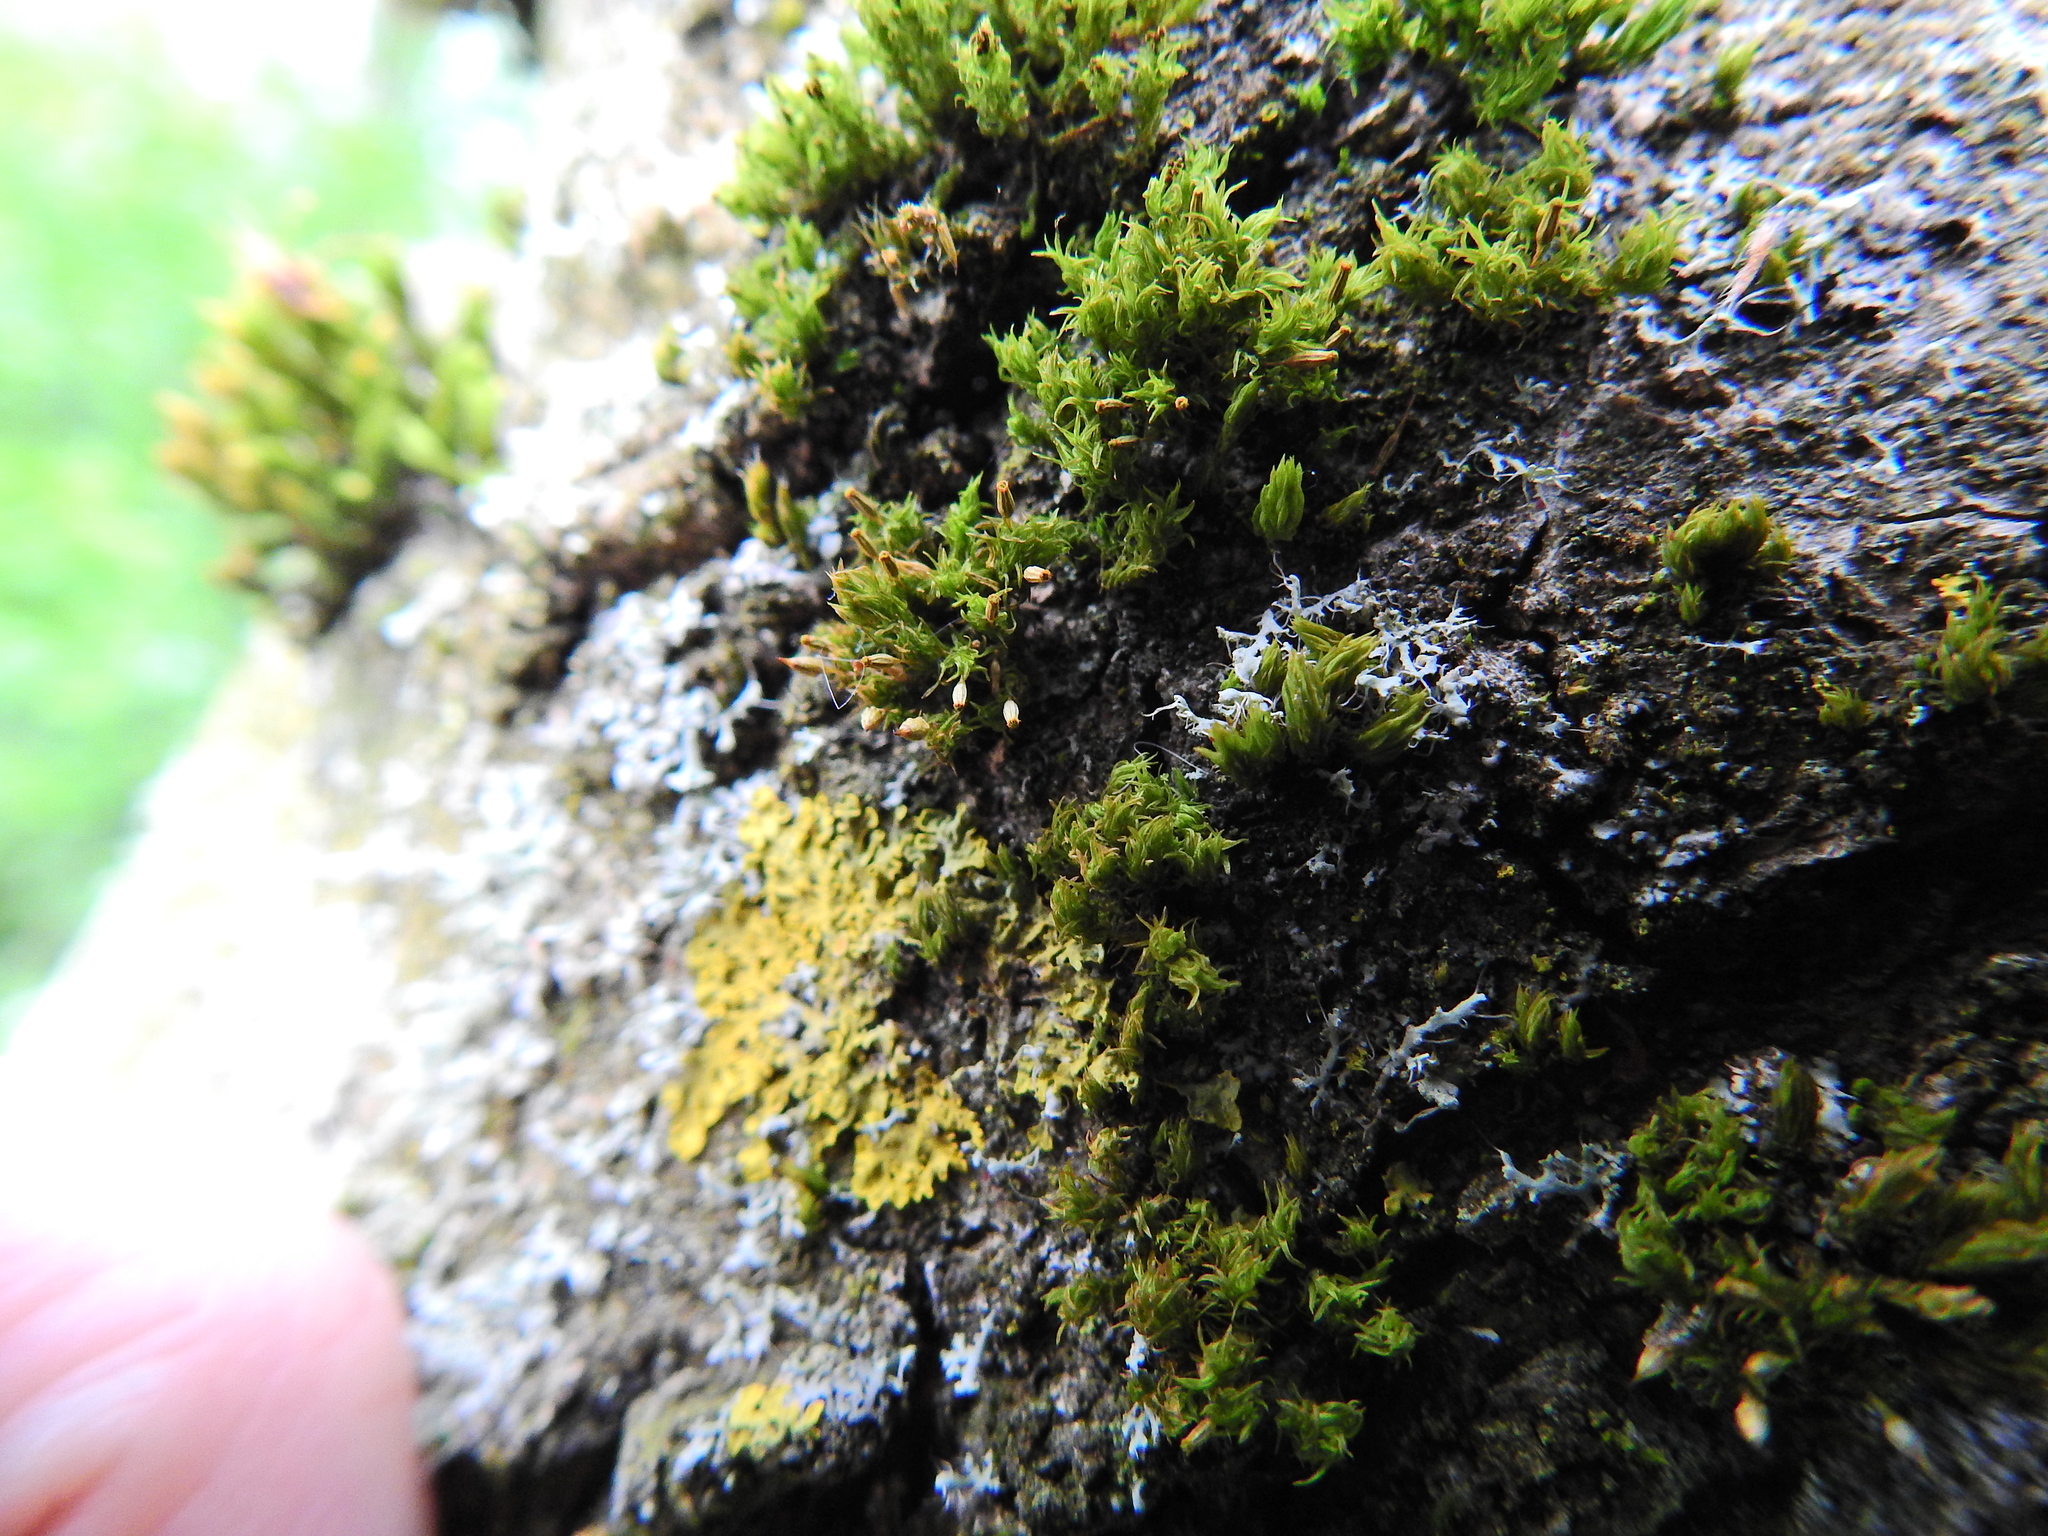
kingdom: Plantae
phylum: Bryophyta
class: Bryopsida
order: Orthotrichales
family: Orthotrichaceae
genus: Orthotrichum
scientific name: Orthotrichum pulchellum
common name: Elegant bristle-moss
